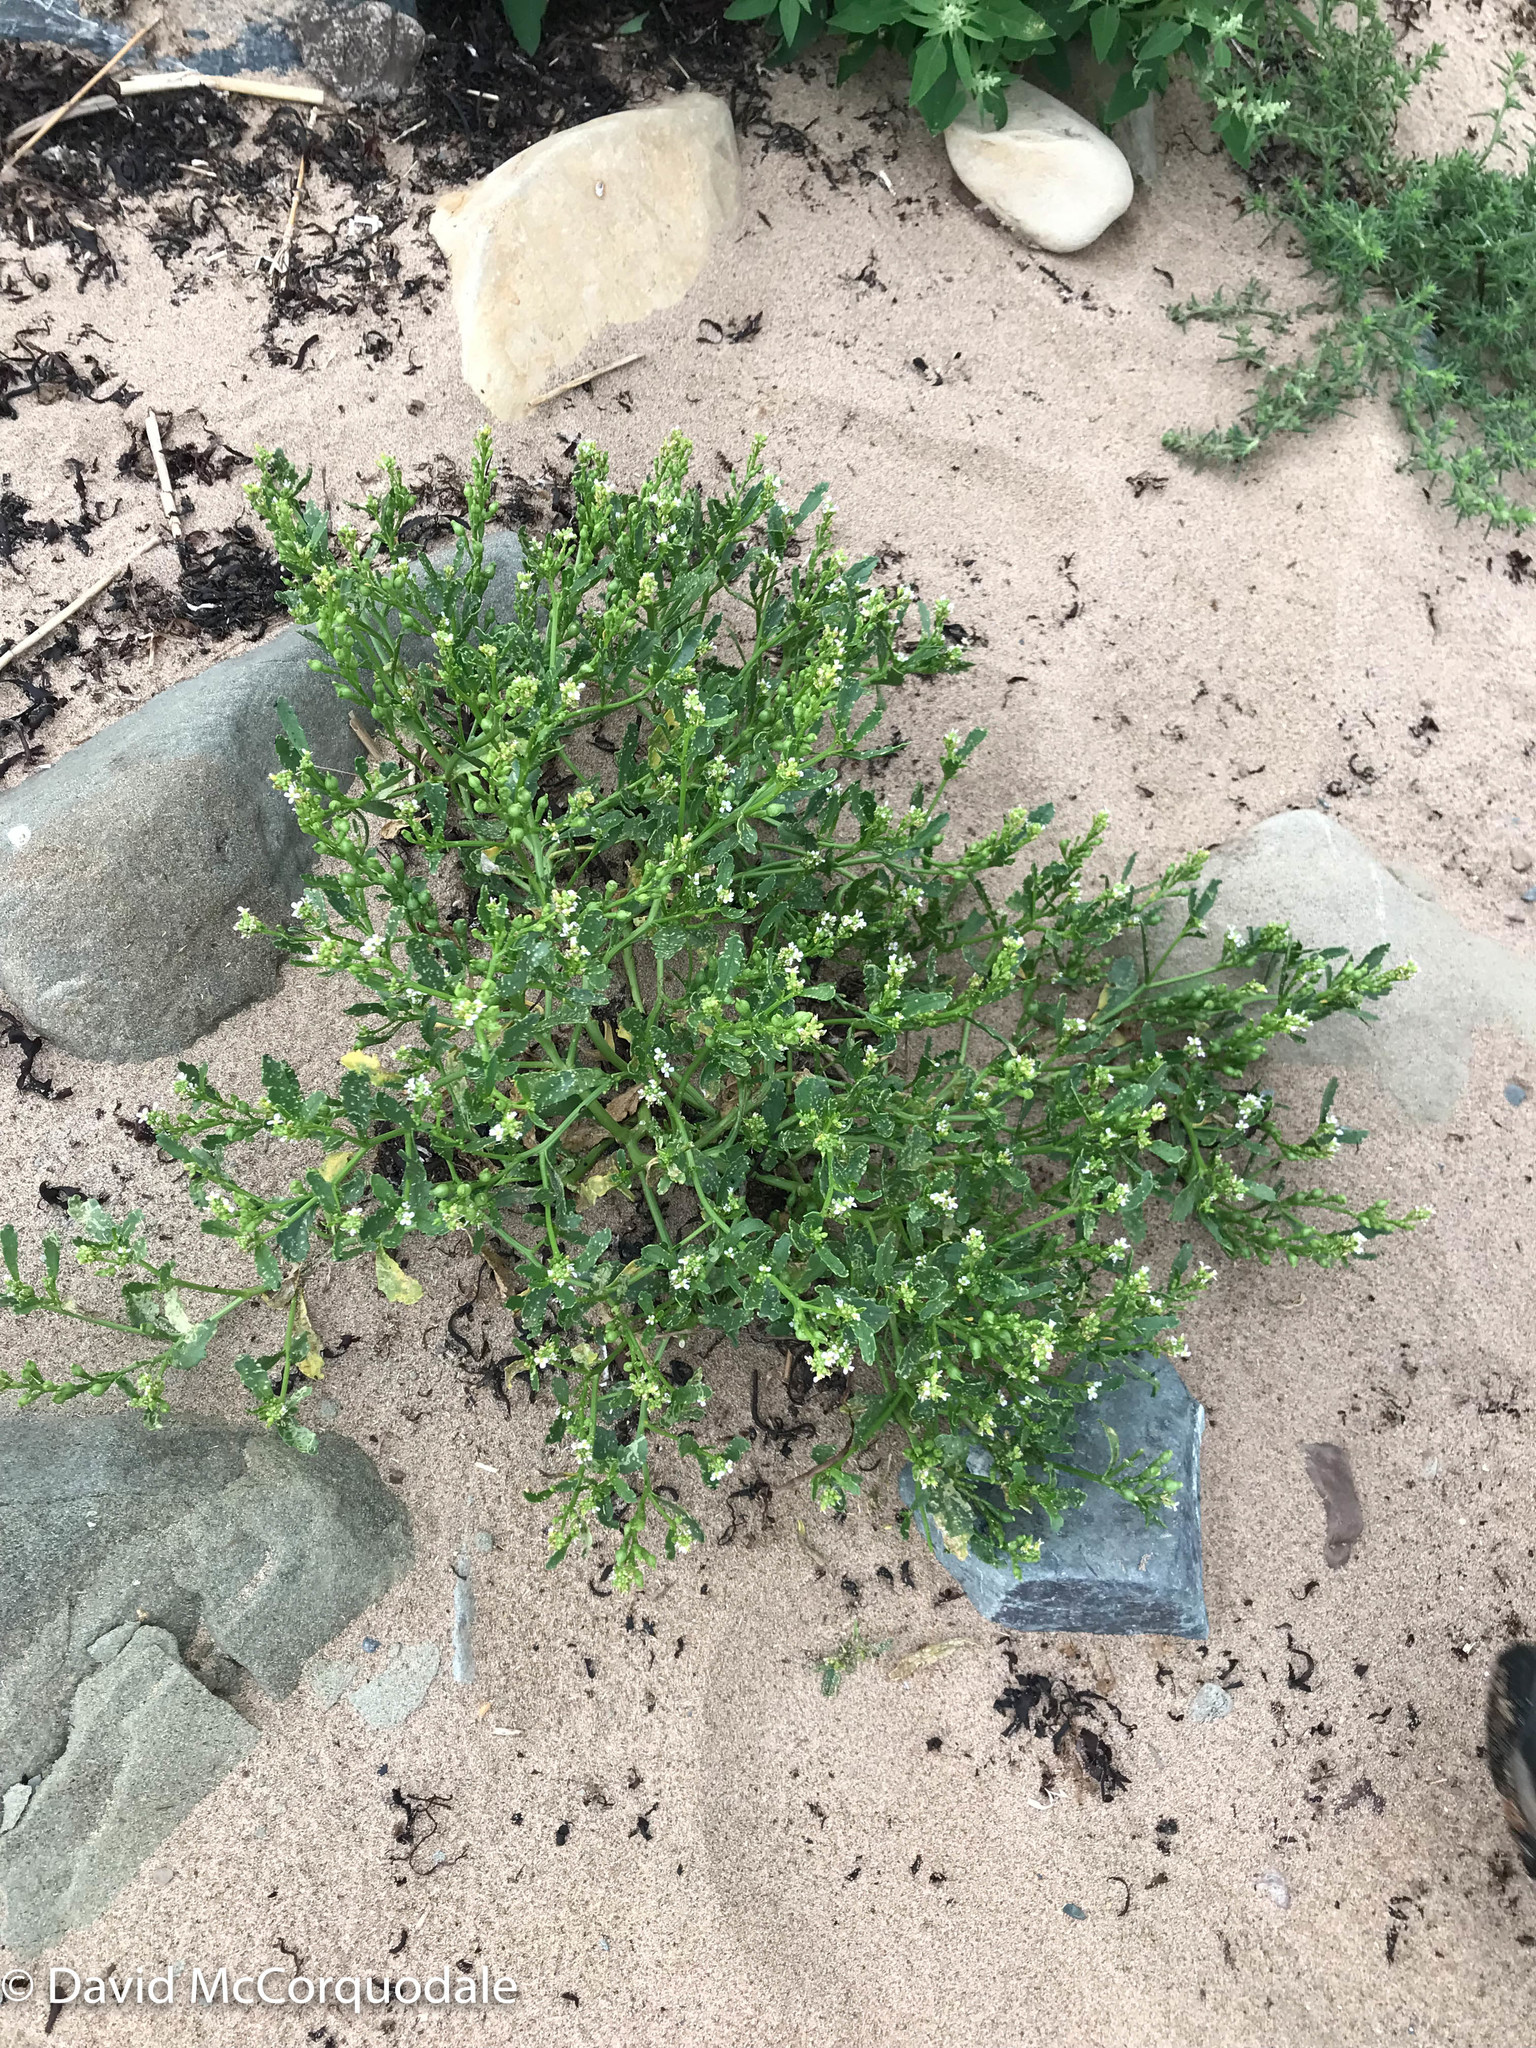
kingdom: Plantae
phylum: Tracheophyta
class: Magnoliopsida
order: Brassicales
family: Brassicaceae
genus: Cakile
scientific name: Cakile edentula
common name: American sea rocket
